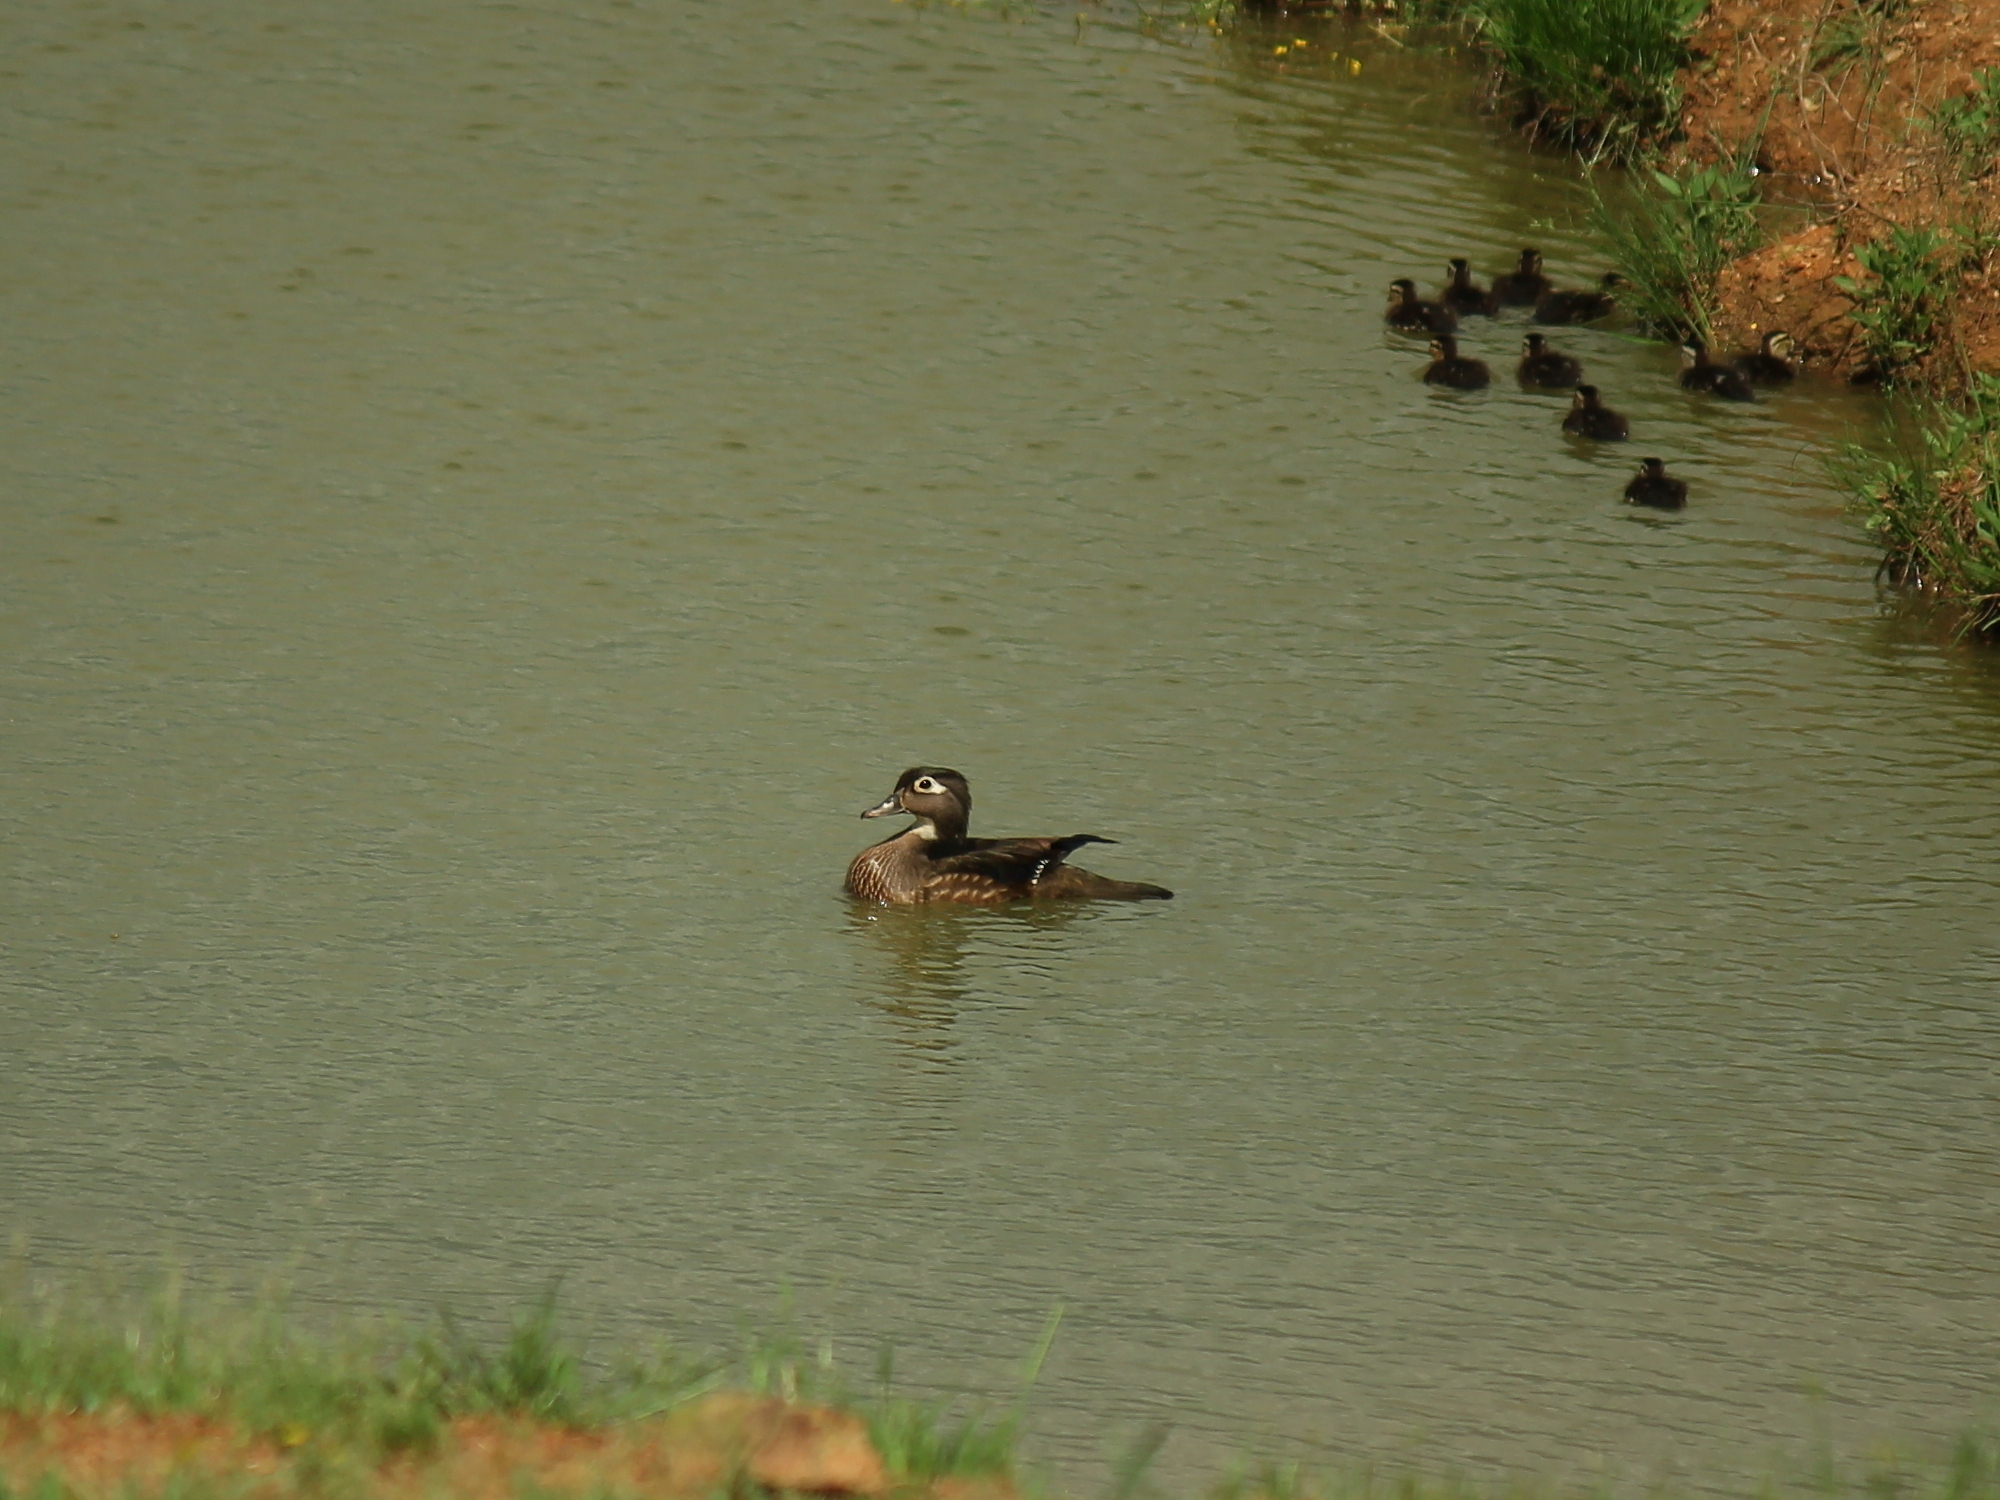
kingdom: Animalia
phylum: Chordata
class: Aves
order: Anseriformes
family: Anatidae
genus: Aix
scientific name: Aix sponsa
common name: Wood duck
